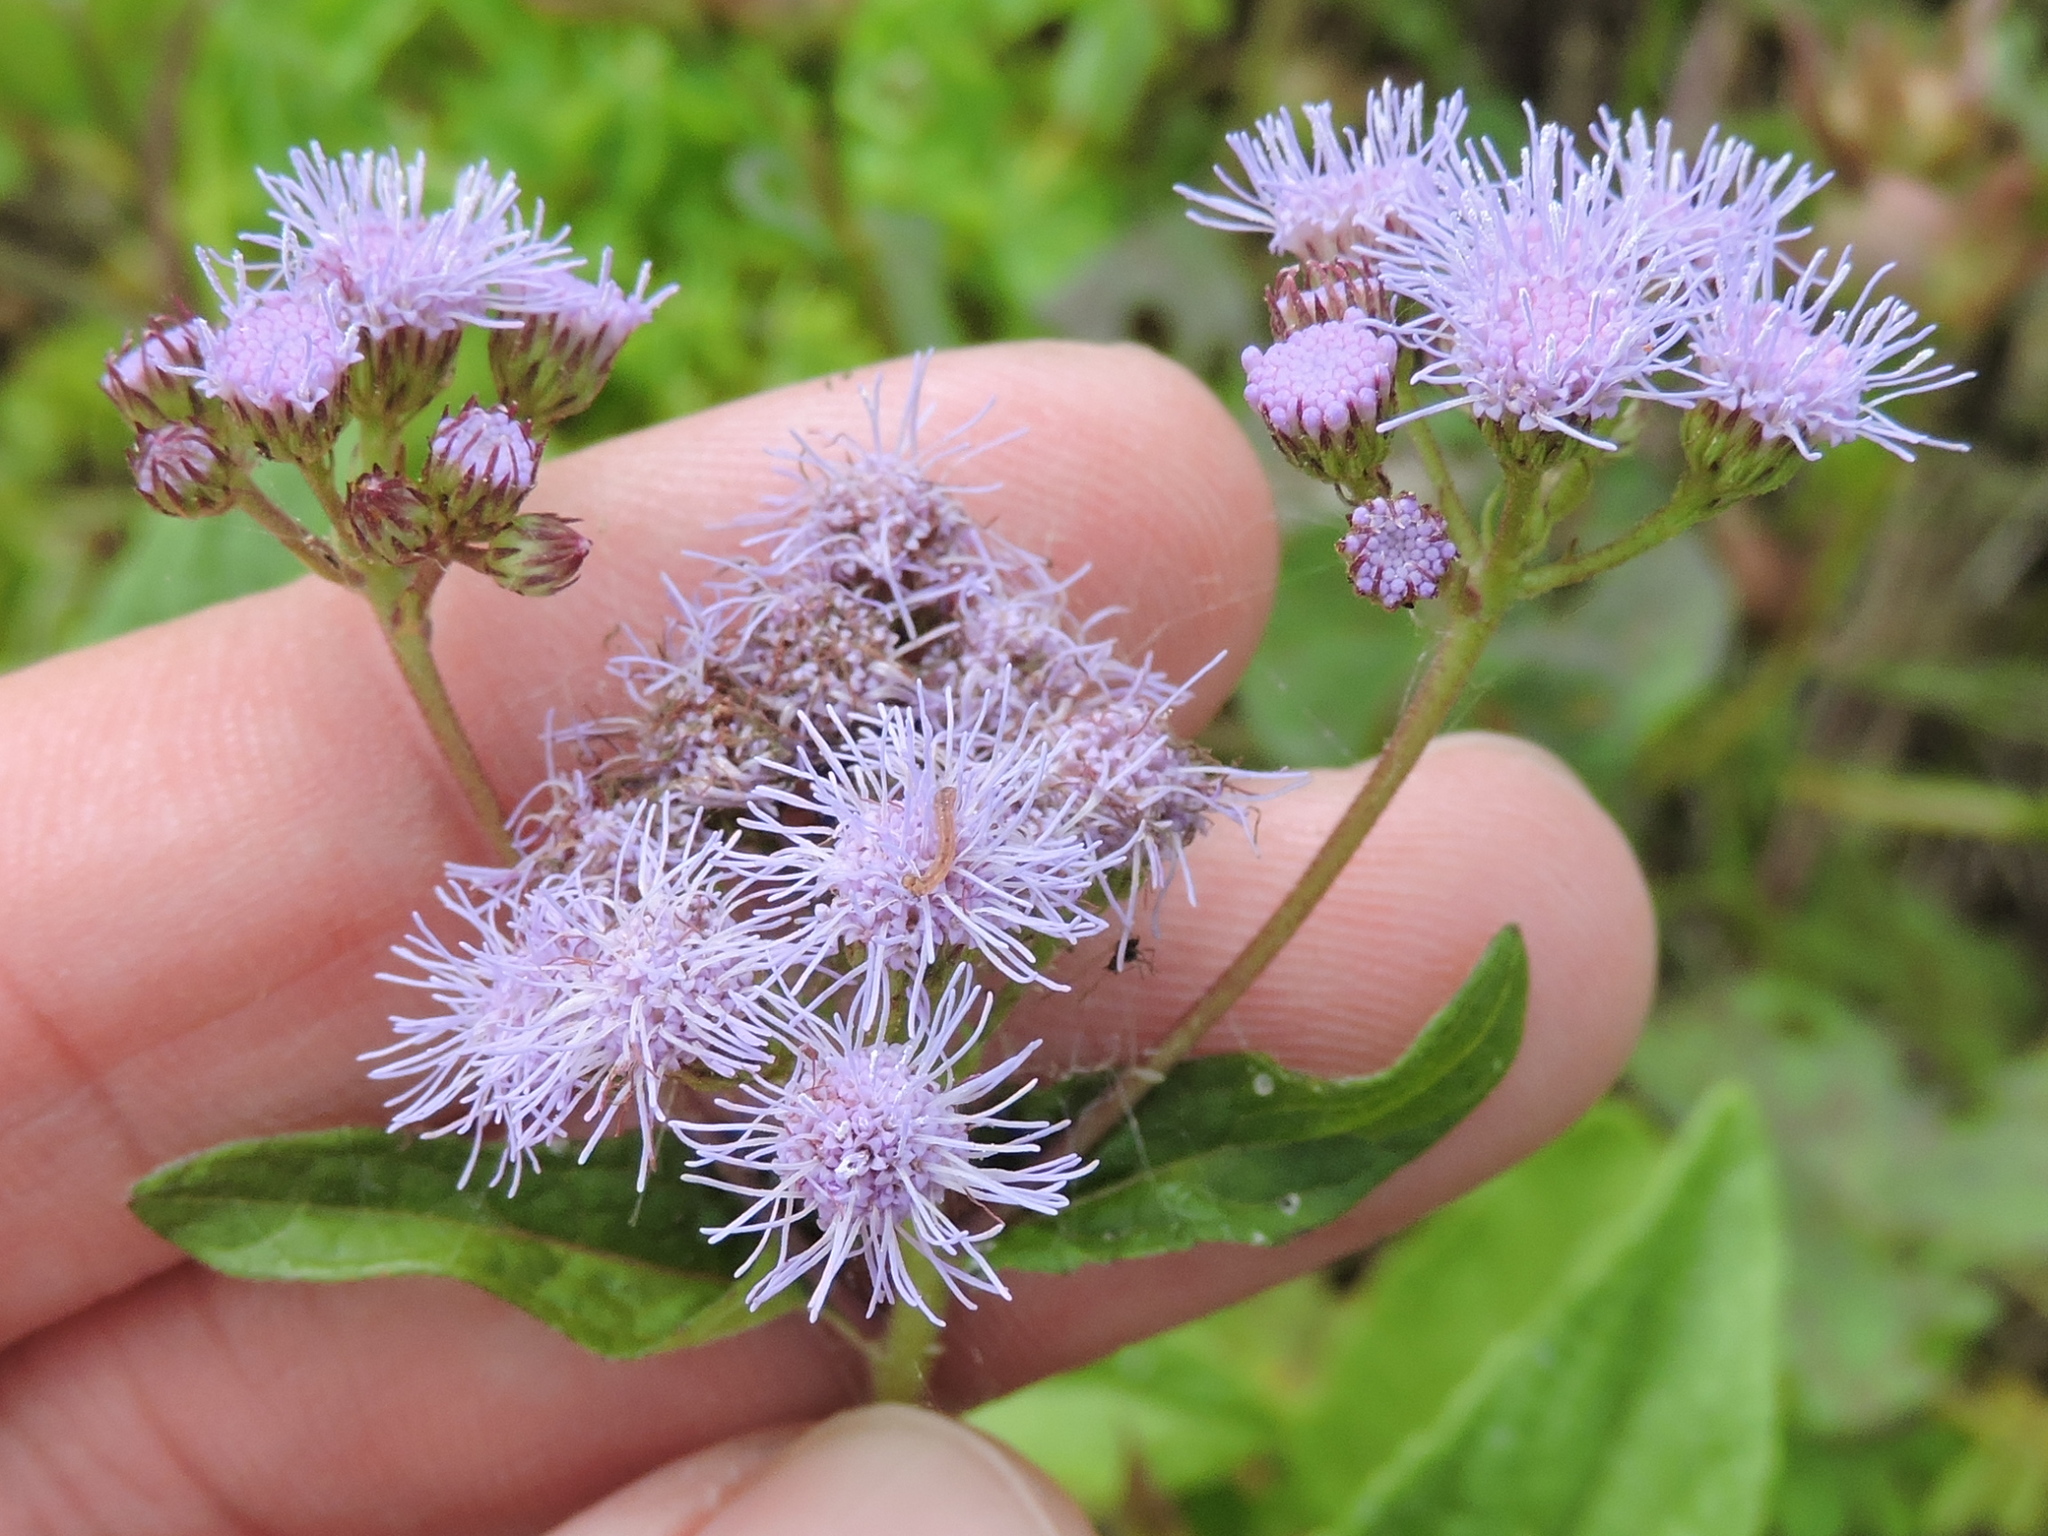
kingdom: Plantae
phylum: Tracheophyta
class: Magnoliopsida
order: Asterales
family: Asteraceae
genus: Conoclinium
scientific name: Conoclinium coelestinum
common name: Blue mistflower
